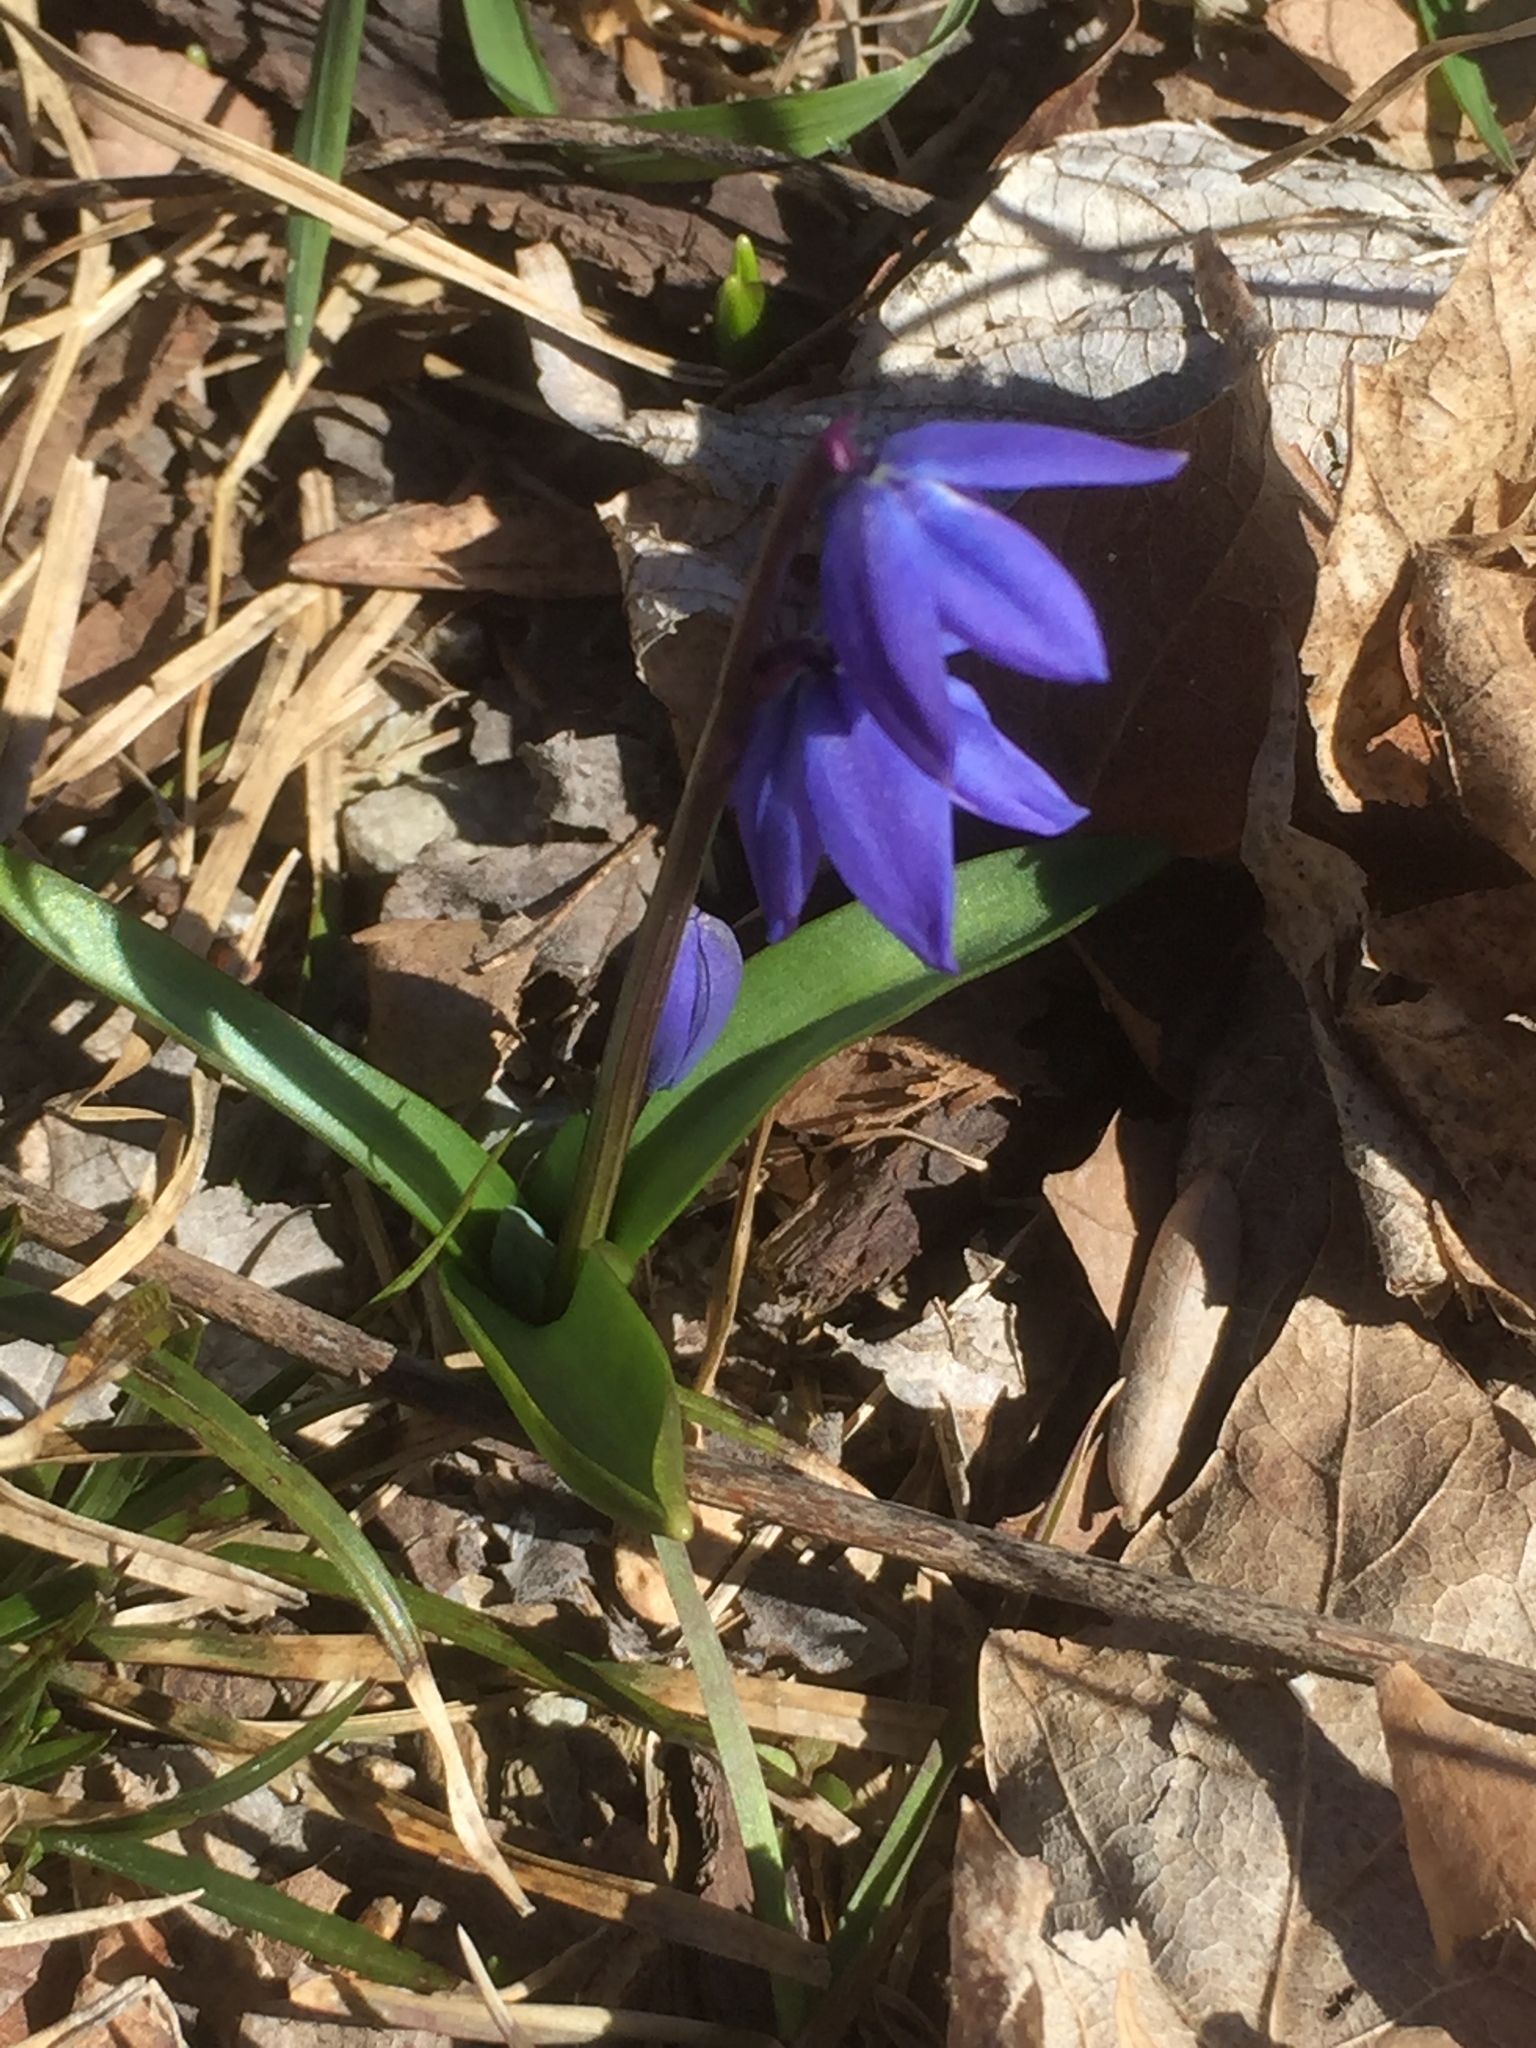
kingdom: Plantae
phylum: Tracheophyta
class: Liliopsida
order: Asparagales
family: Asparagaceae
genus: Scilla
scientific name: Scilla siberica
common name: Siberian squill
